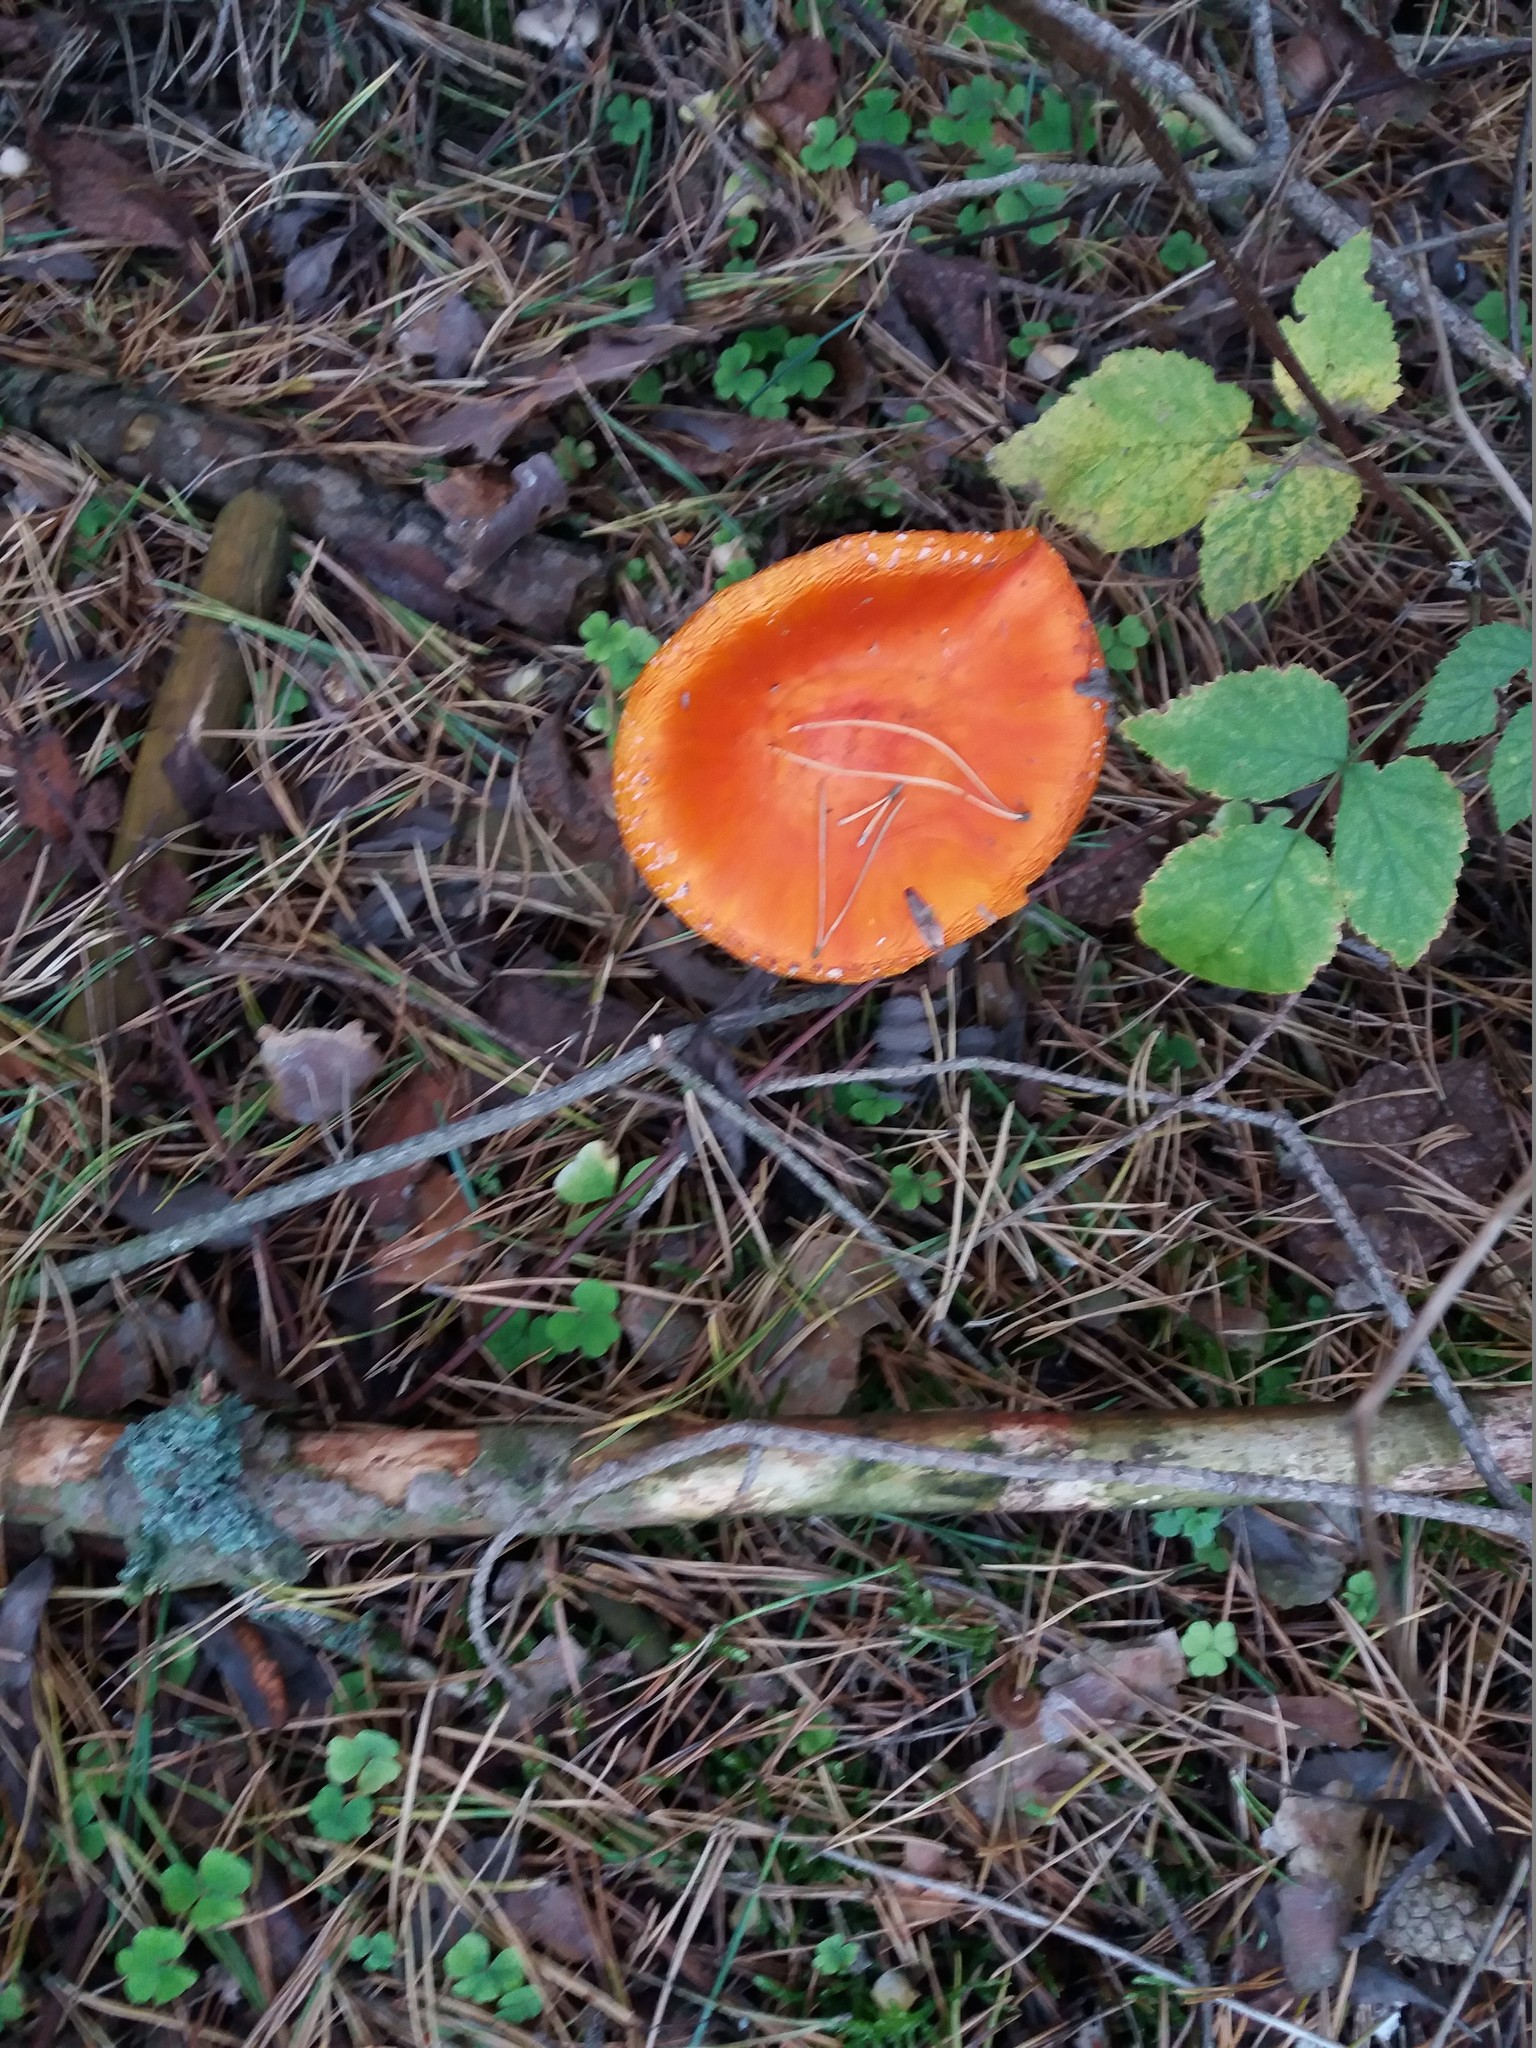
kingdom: Fungi
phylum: Basidiomycota
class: Agaricomycetes
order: Agaricales
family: Amanitaceae
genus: Amanita
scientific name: Amanita muscaria
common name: Fly agaric
